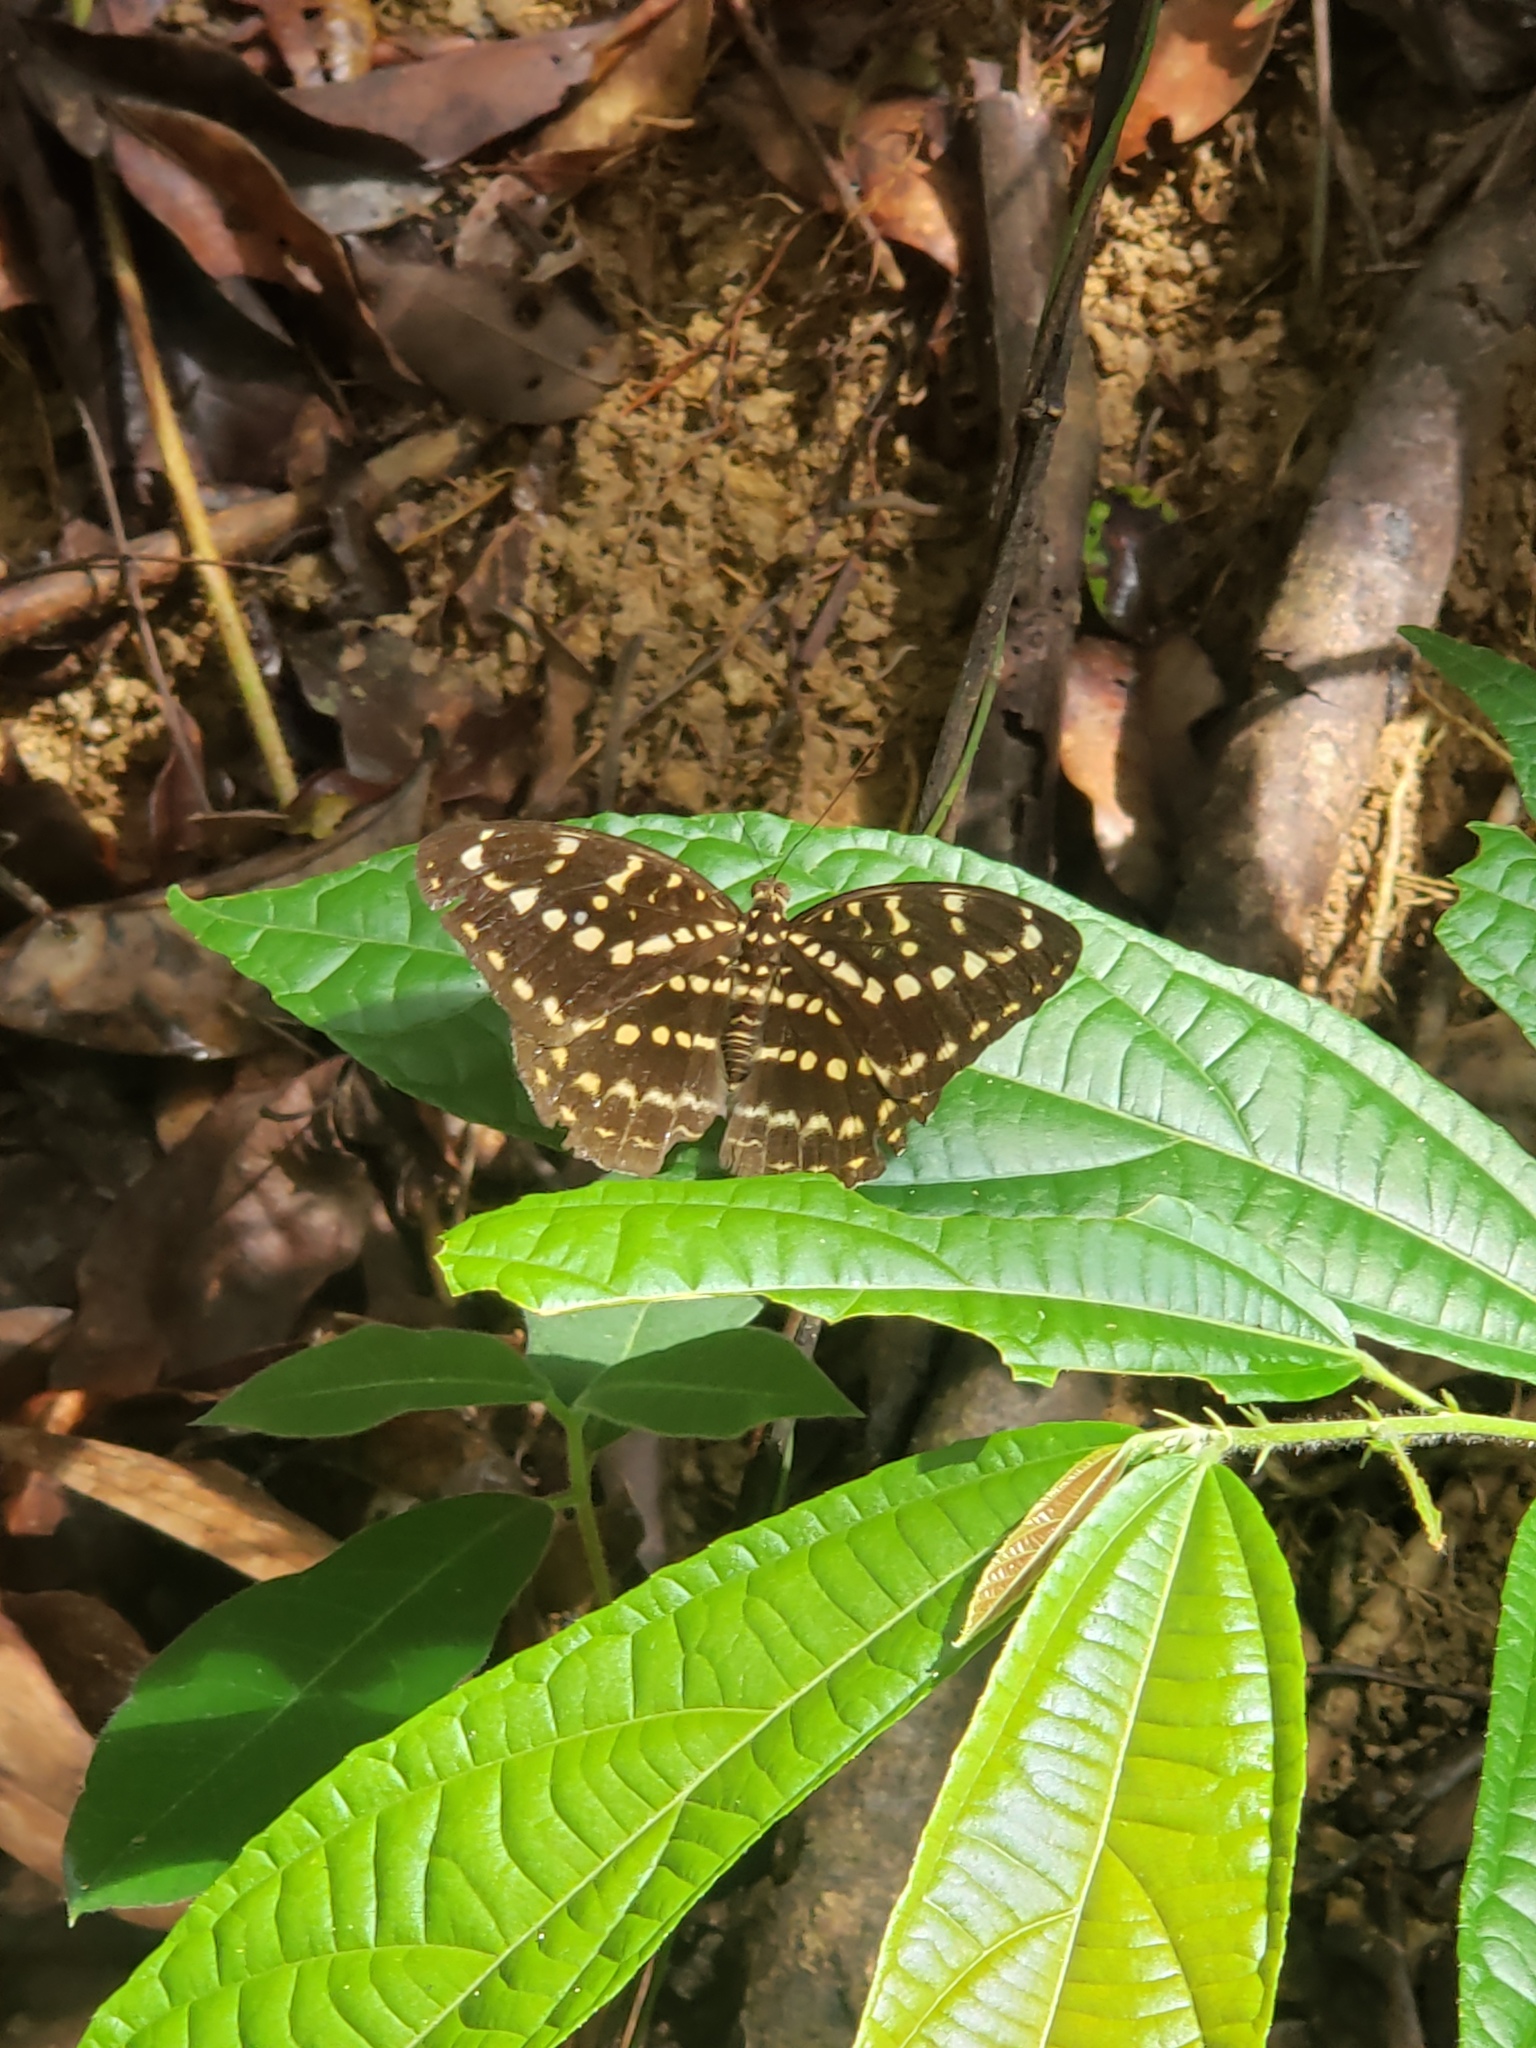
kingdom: Animalia
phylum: Arthropoda
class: Insecta
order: Lepidoptera
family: Nymphalidae
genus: Lexias
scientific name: Lexias canescens
